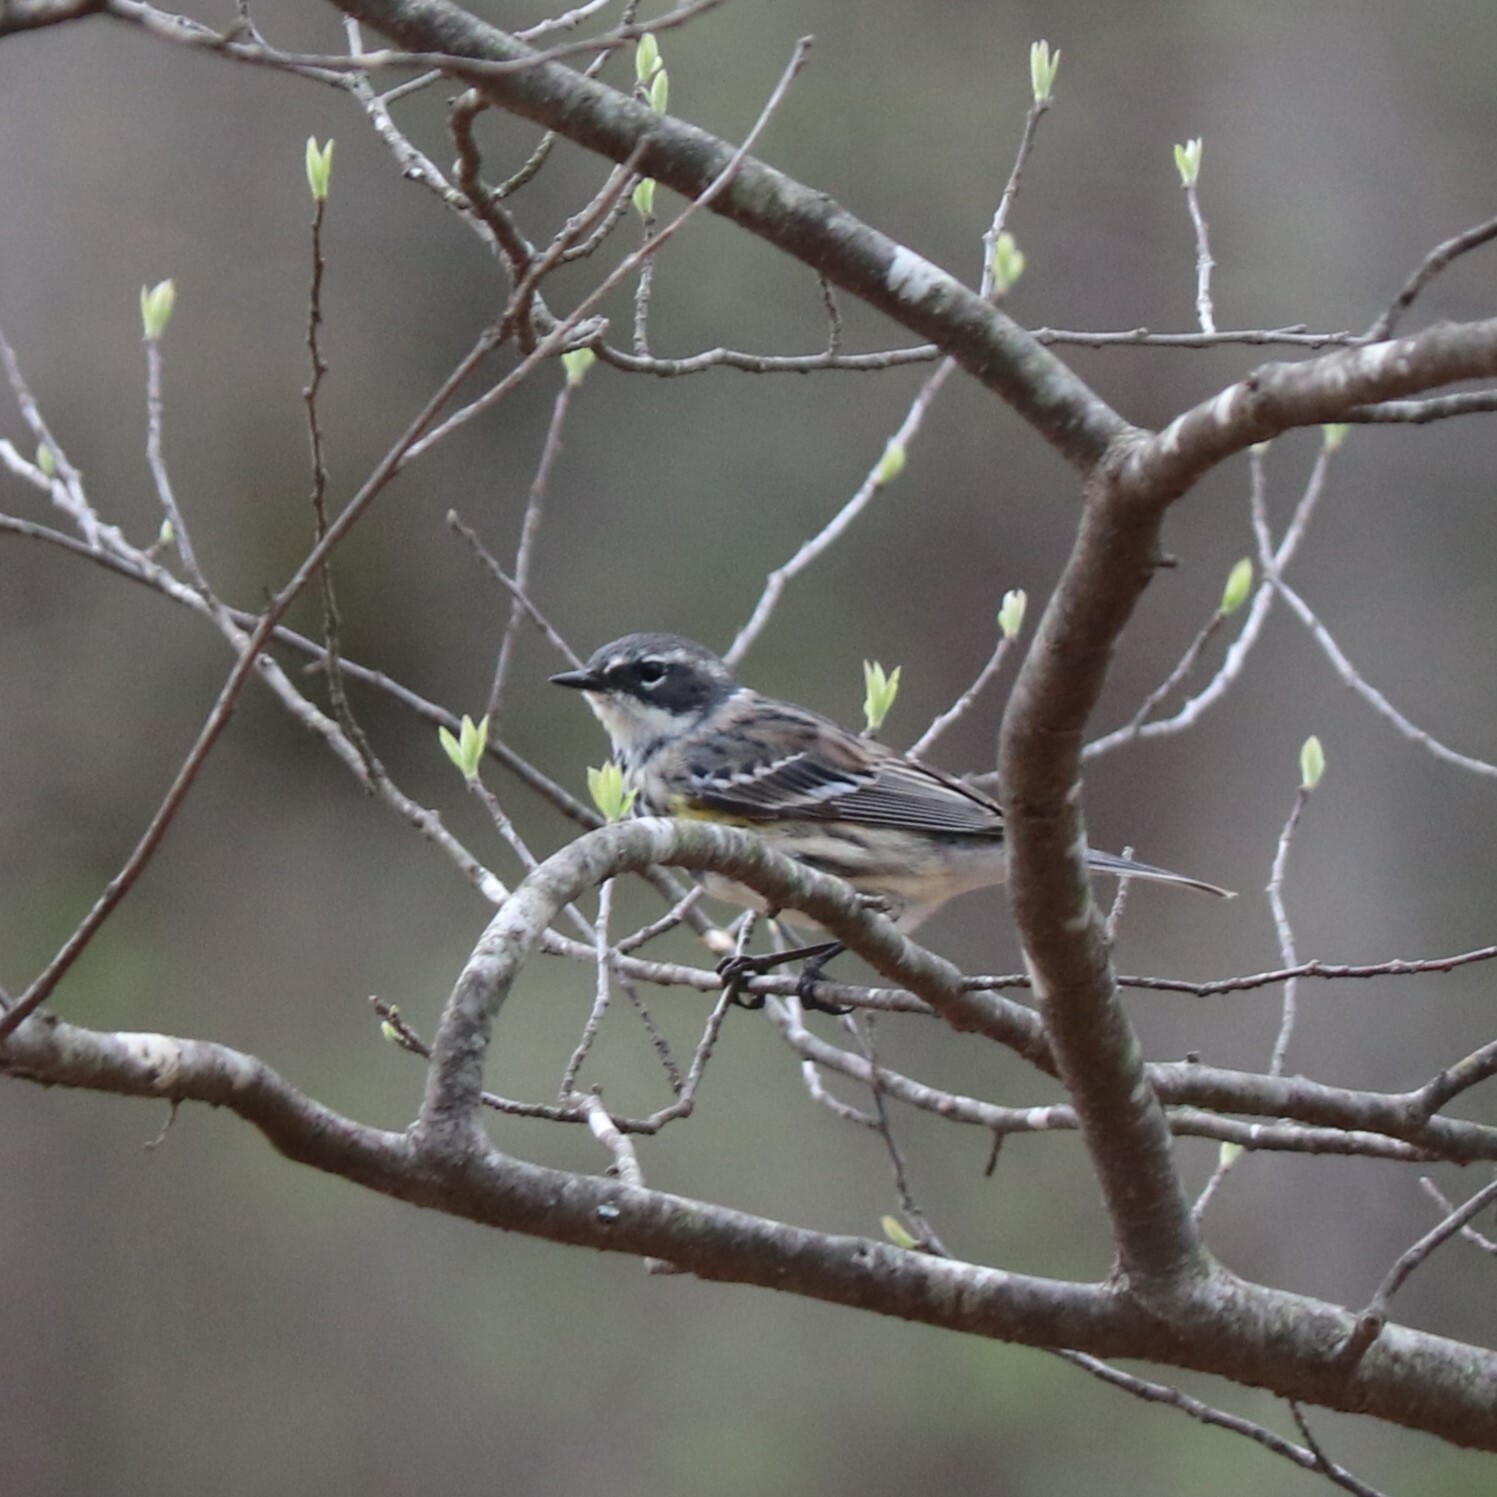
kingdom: Animalia
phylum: Chordata
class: Aves
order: Passeriformes
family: Parulidae
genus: Setophaga
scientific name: Setophaga coronata
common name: Myrtle warbler
